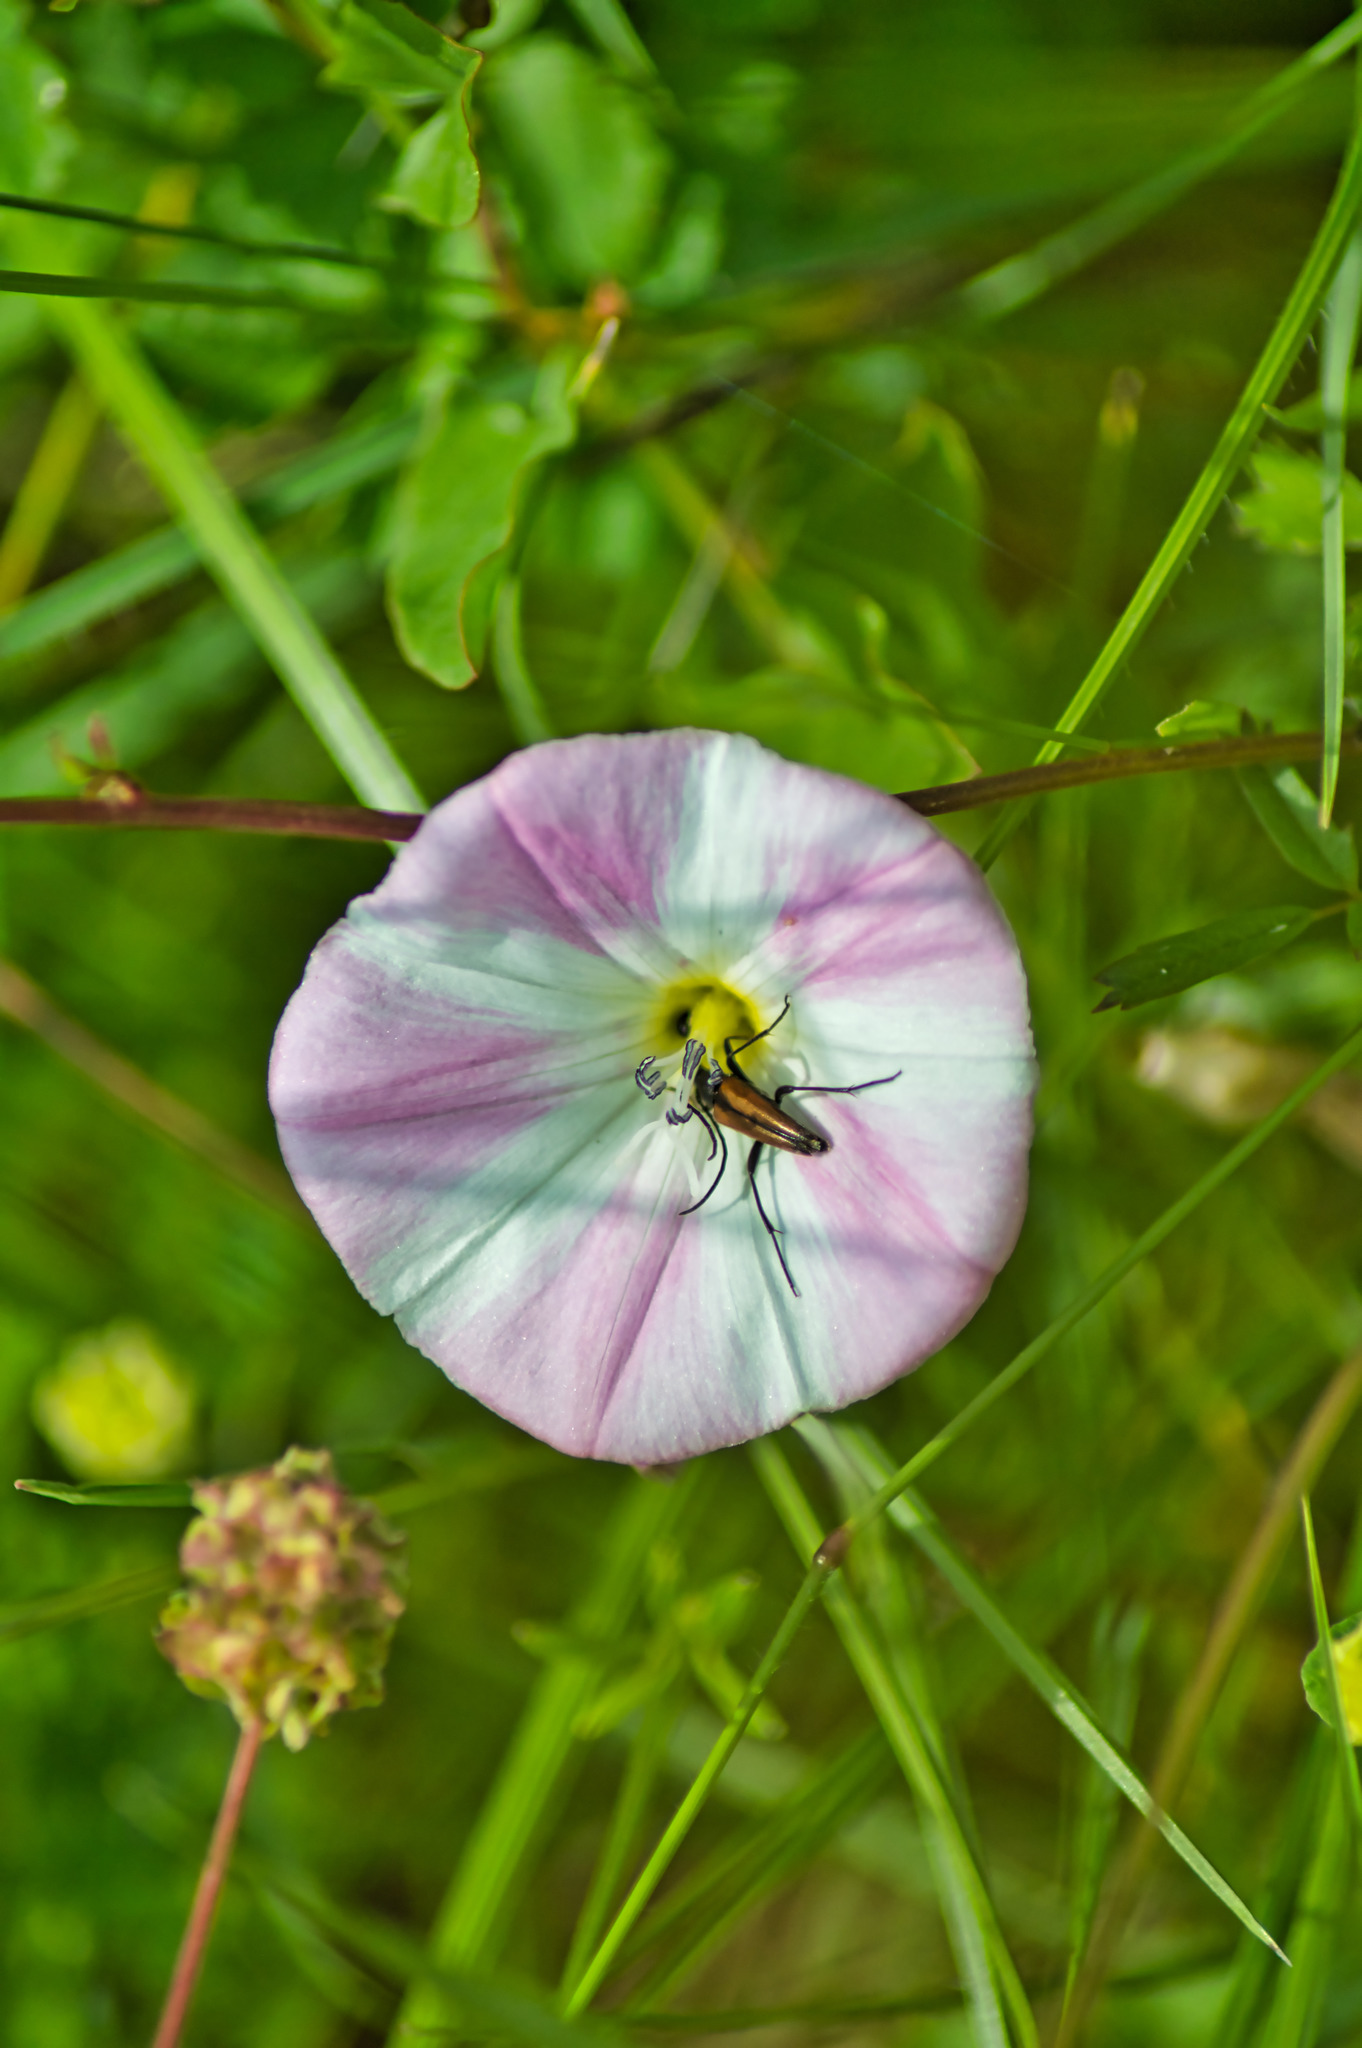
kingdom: Animalia
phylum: Arthropoda
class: Insecta
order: Coleoptera
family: Cerambycidae
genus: Stenurella
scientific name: Stenurella melanura
